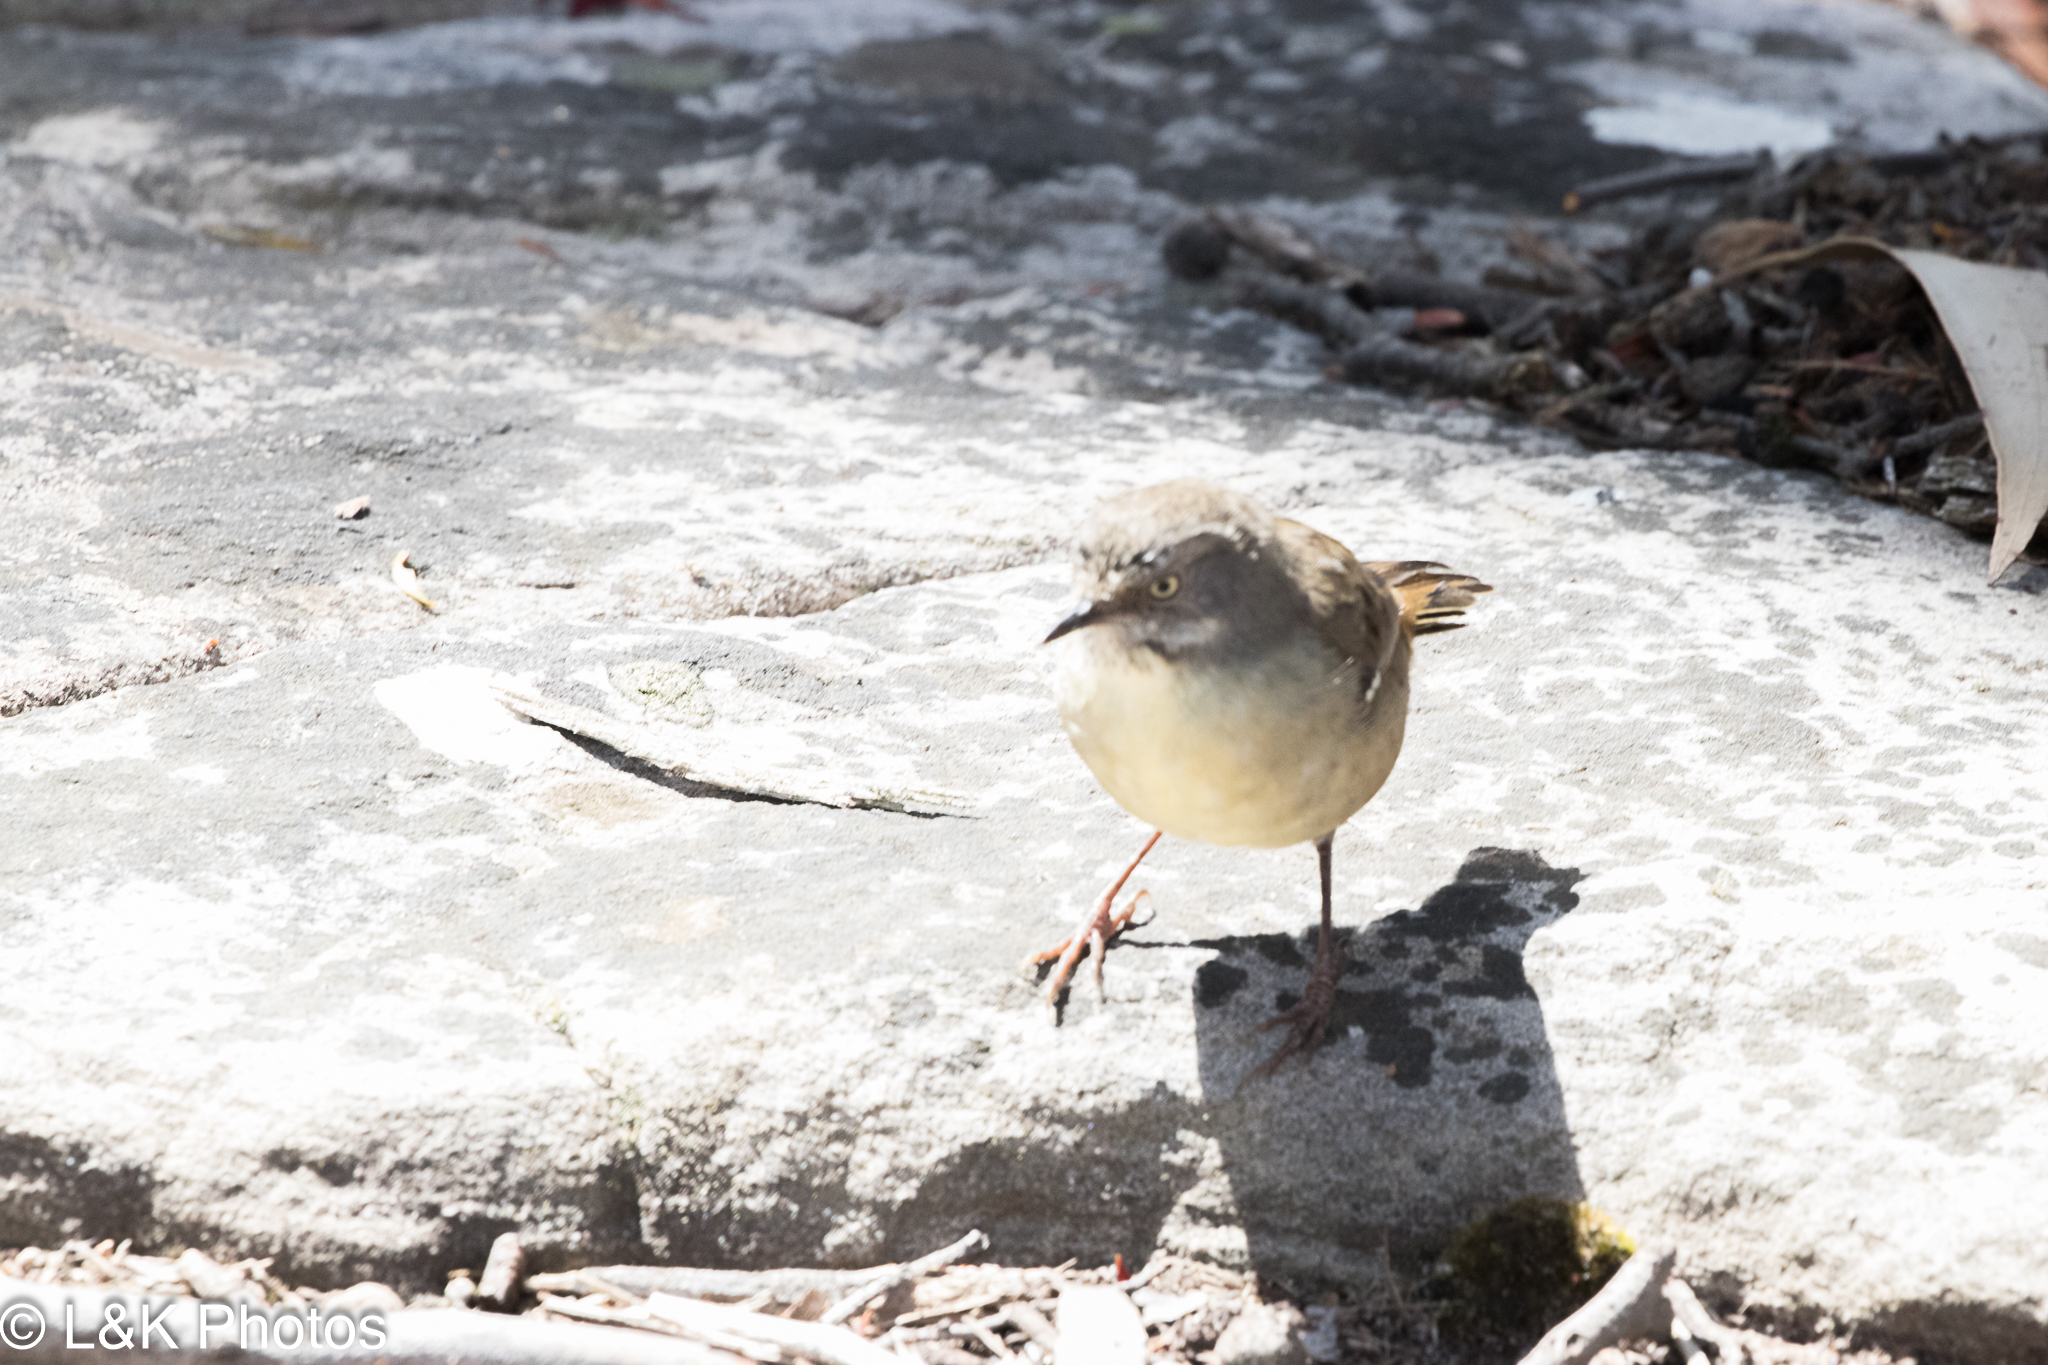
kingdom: Animalia
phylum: Chordata
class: Aves
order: Passeriformes
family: Acanthizidae
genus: Sericornis
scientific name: Sericornis frontalis
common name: White-browed scrubwren
